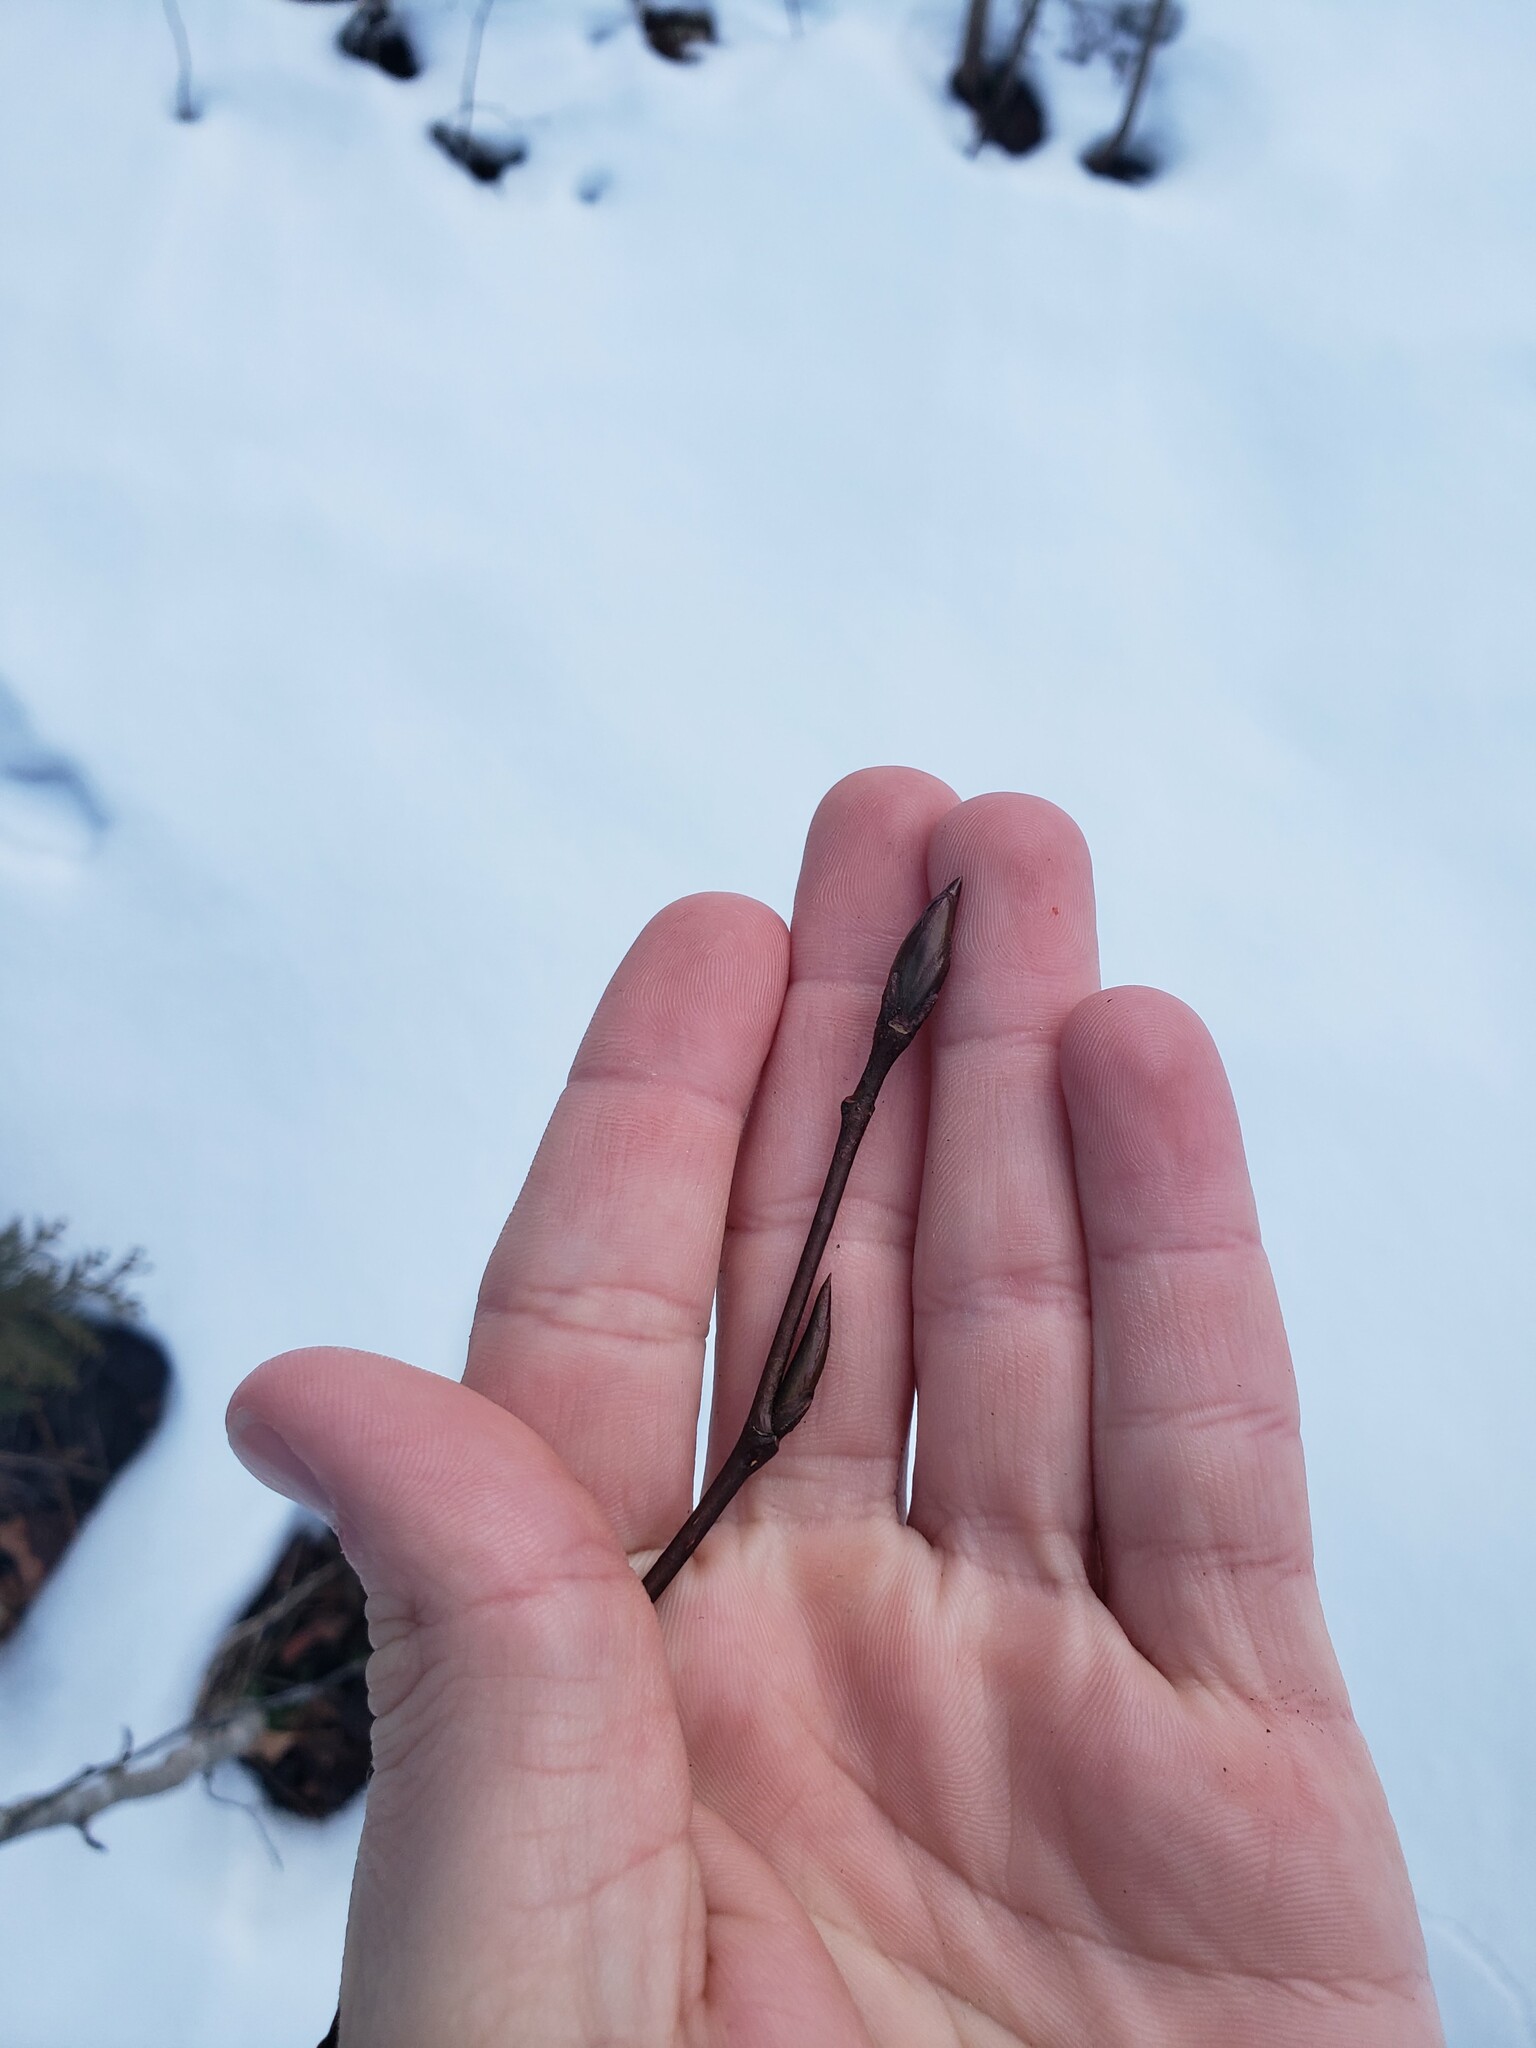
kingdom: Plantae
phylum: Tracheophyta
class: Magnoliopsida
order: Malpighiales
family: Salicaceae
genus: Populus
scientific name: Populus balsamifera
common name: Balsam poplar
